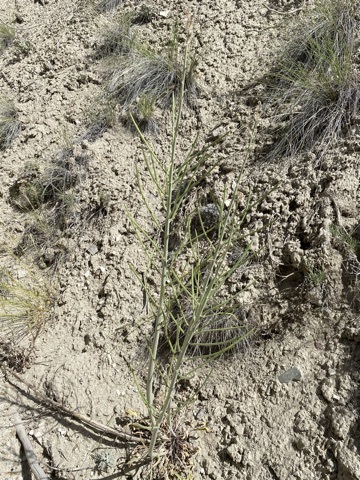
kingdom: Plantae
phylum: Tracheophyta
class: Magnoliopsida
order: Brassicales
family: Brassicaceae
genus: Streptanthus
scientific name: Streptanthus crassicaulis
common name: Thick-stem wild cabbage
